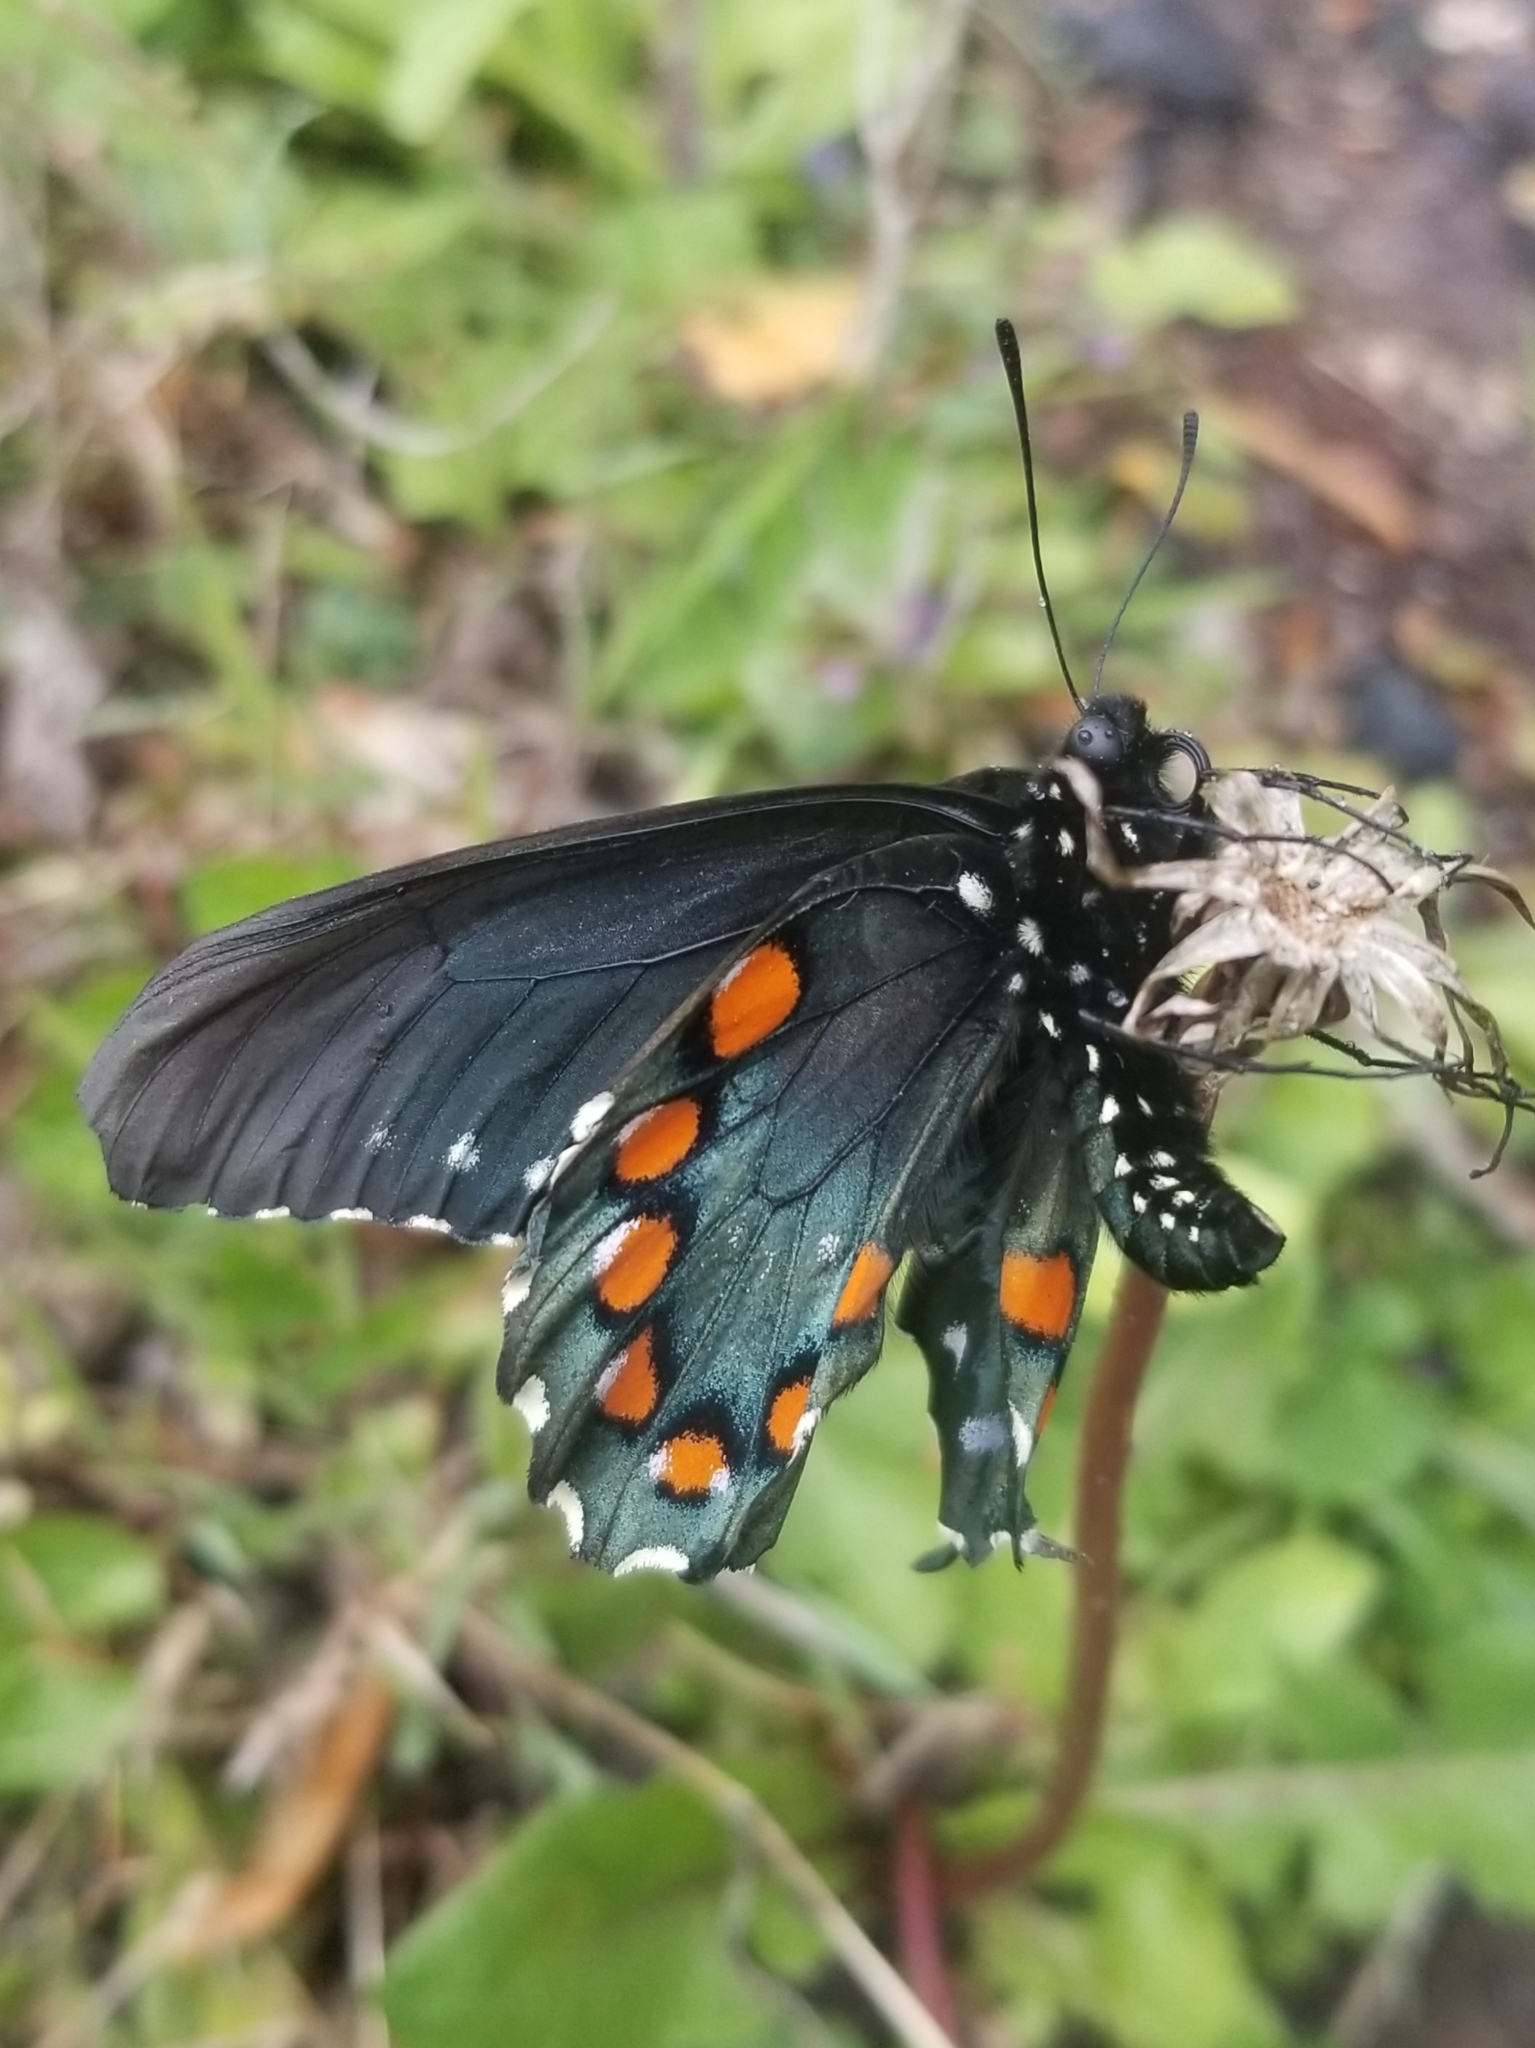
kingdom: Animalia
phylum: Arthropoda
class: Insecta
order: Lepidoptera
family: Papilionidae
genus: Battus
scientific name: Battus philenor
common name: Pipevine swallowtail
